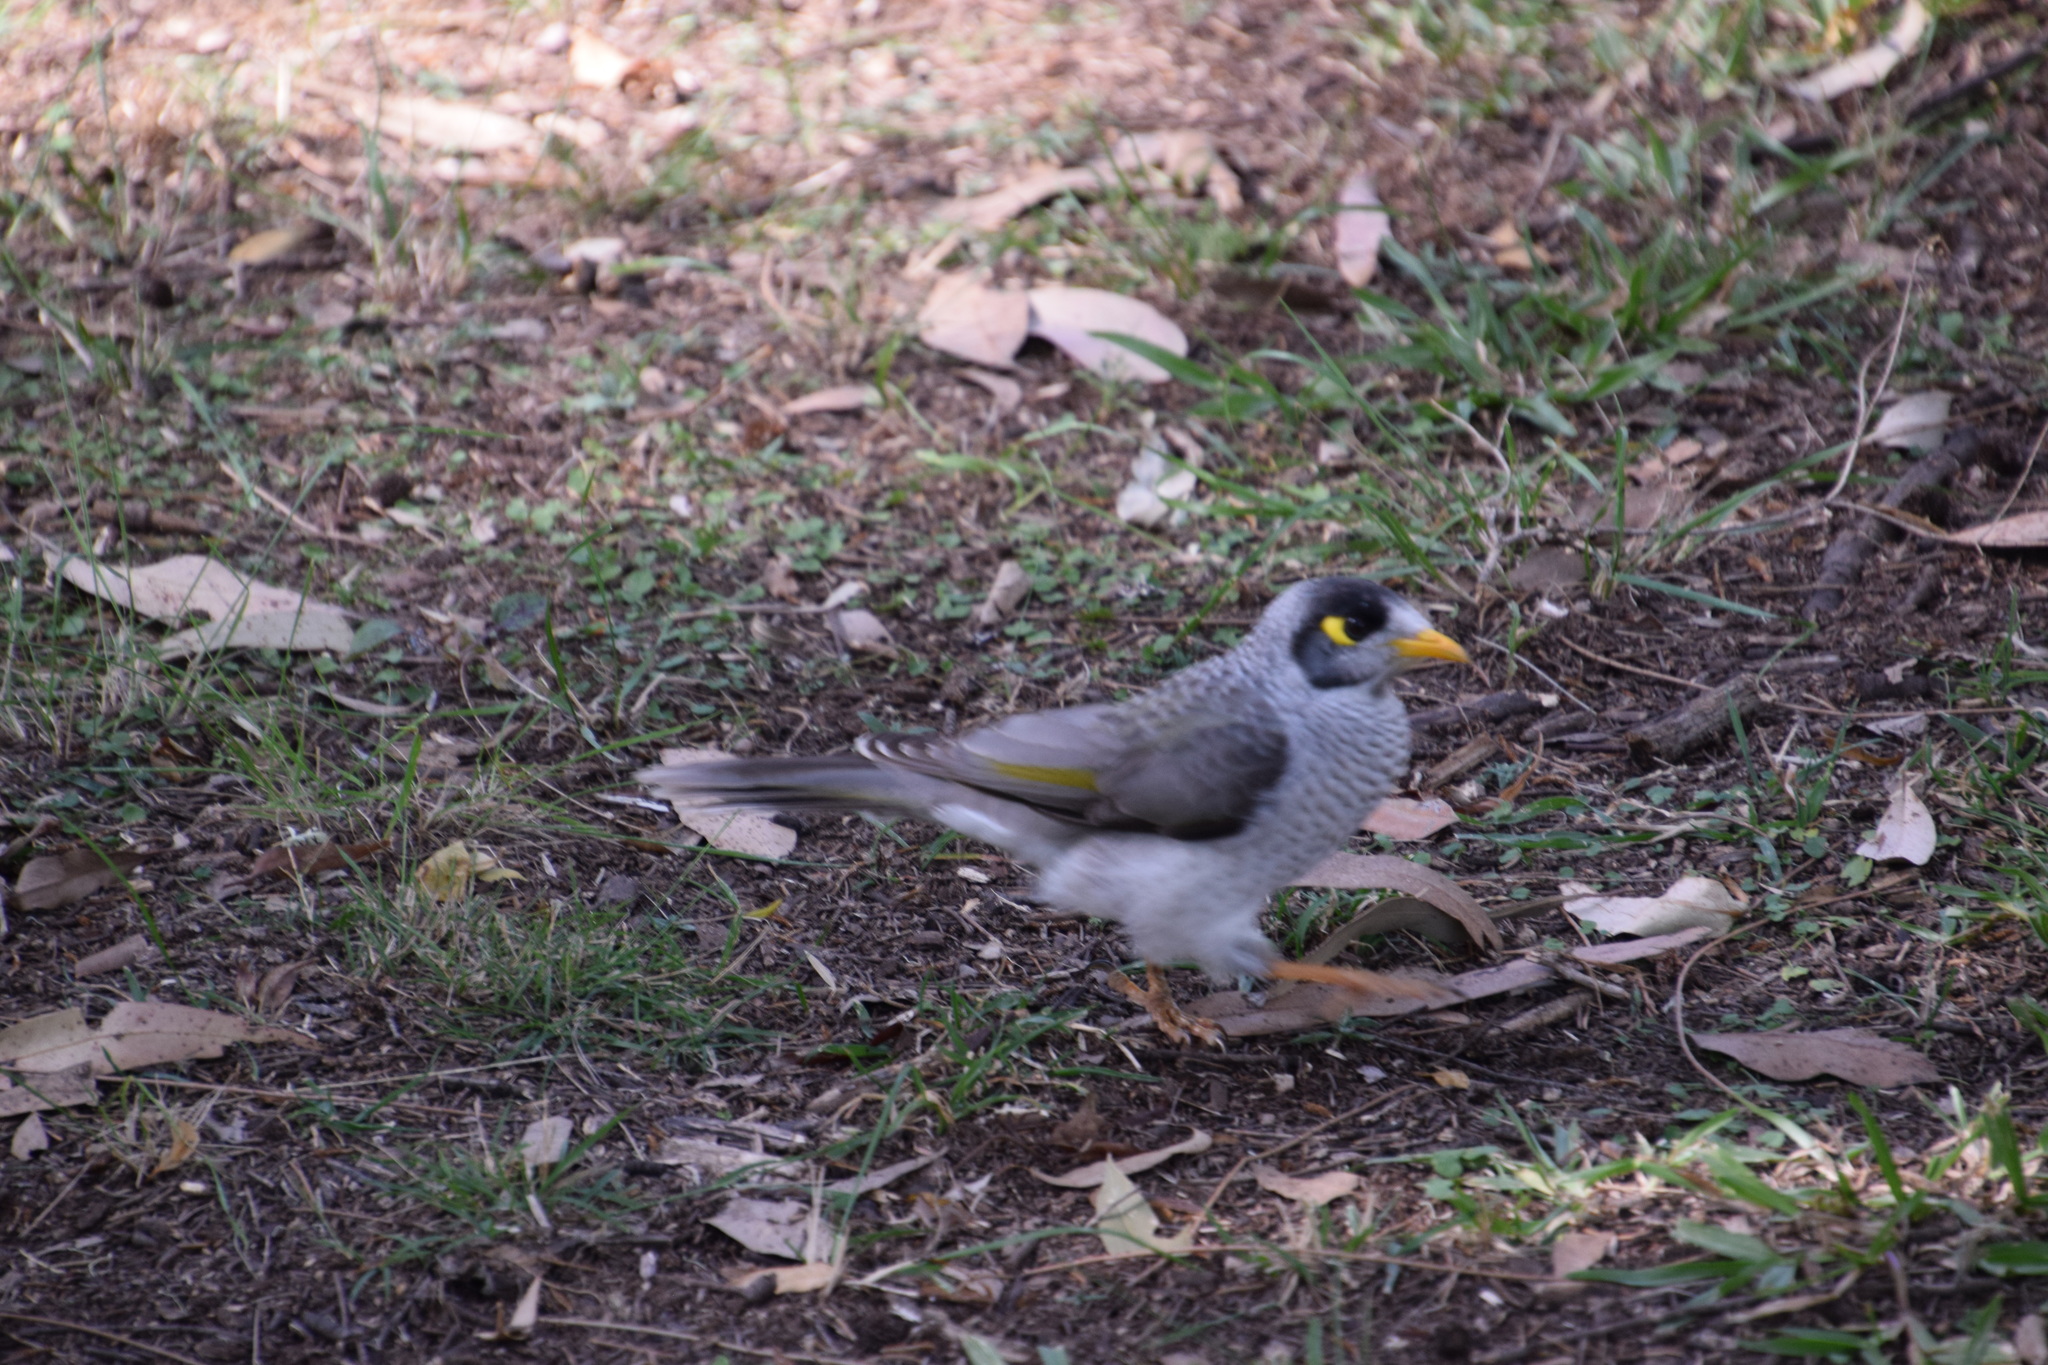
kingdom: Animalia
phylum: Chordata
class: Aves
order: Passeriformes
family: Meliphagidae
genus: Manorina
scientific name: Manorina melanocephala
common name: Noisy miner
